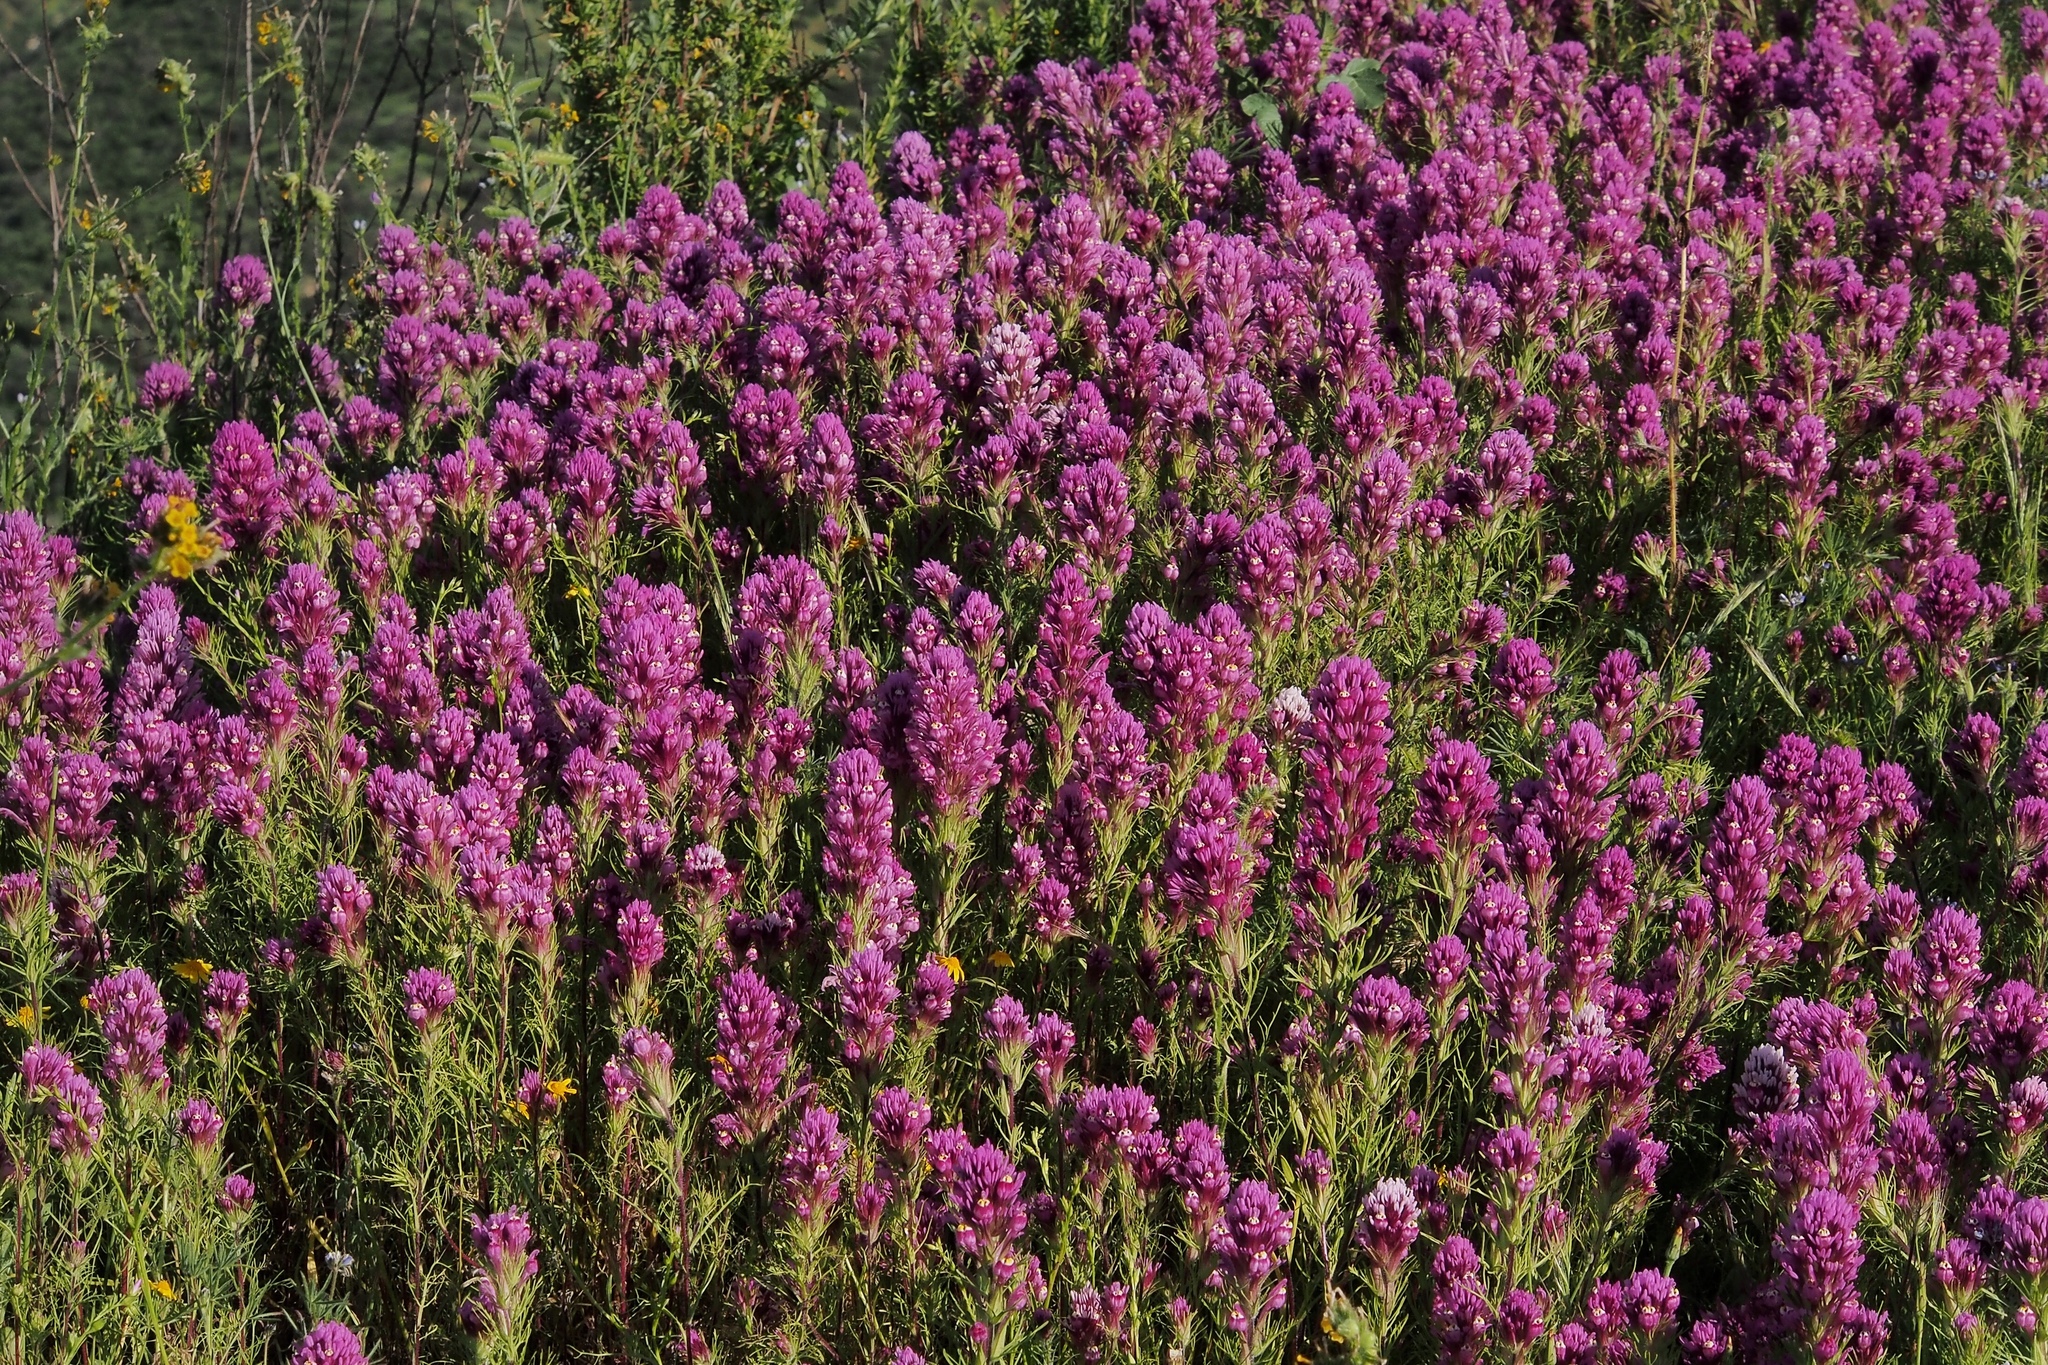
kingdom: Plantae
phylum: Tracheophyta
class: Magnoliopsida
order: Lamiales
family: Orobanchaceae
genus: Castilleja
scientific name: Castilleja exserta
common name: Purple owl-clover
